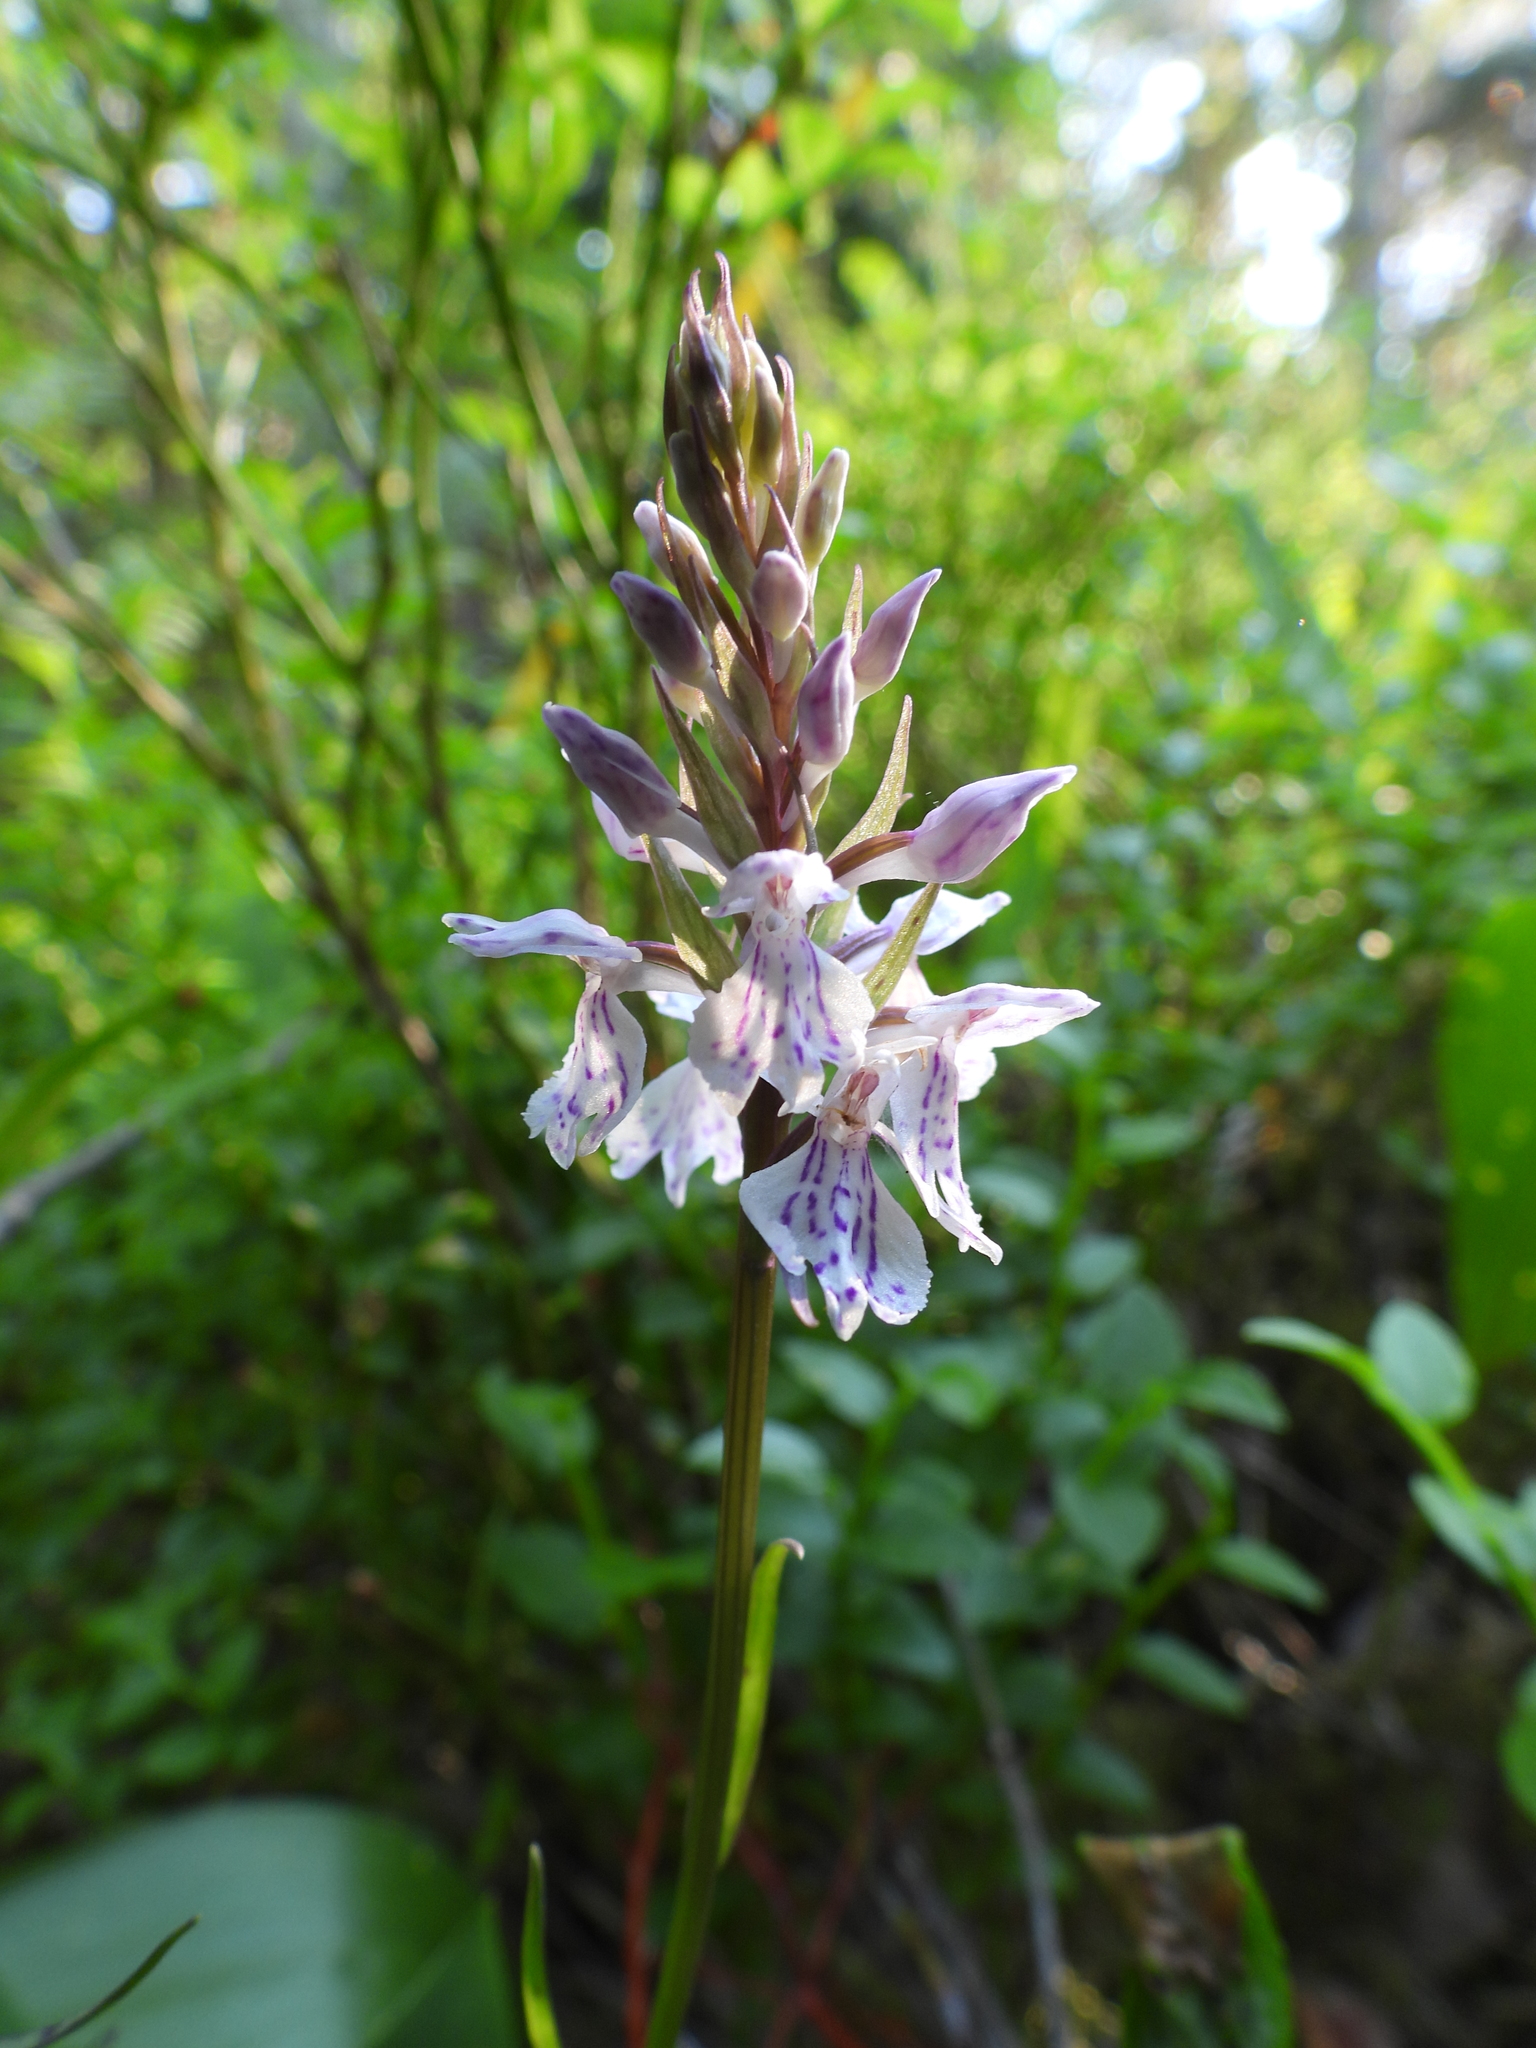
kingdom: Plantae
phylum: Tracheophyta
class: Liliopsida
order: Asparagales
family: Orchidaceae
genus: Dactylorhiza
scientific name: Dactylorhiza maculata
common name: Heath spotted-orchid
